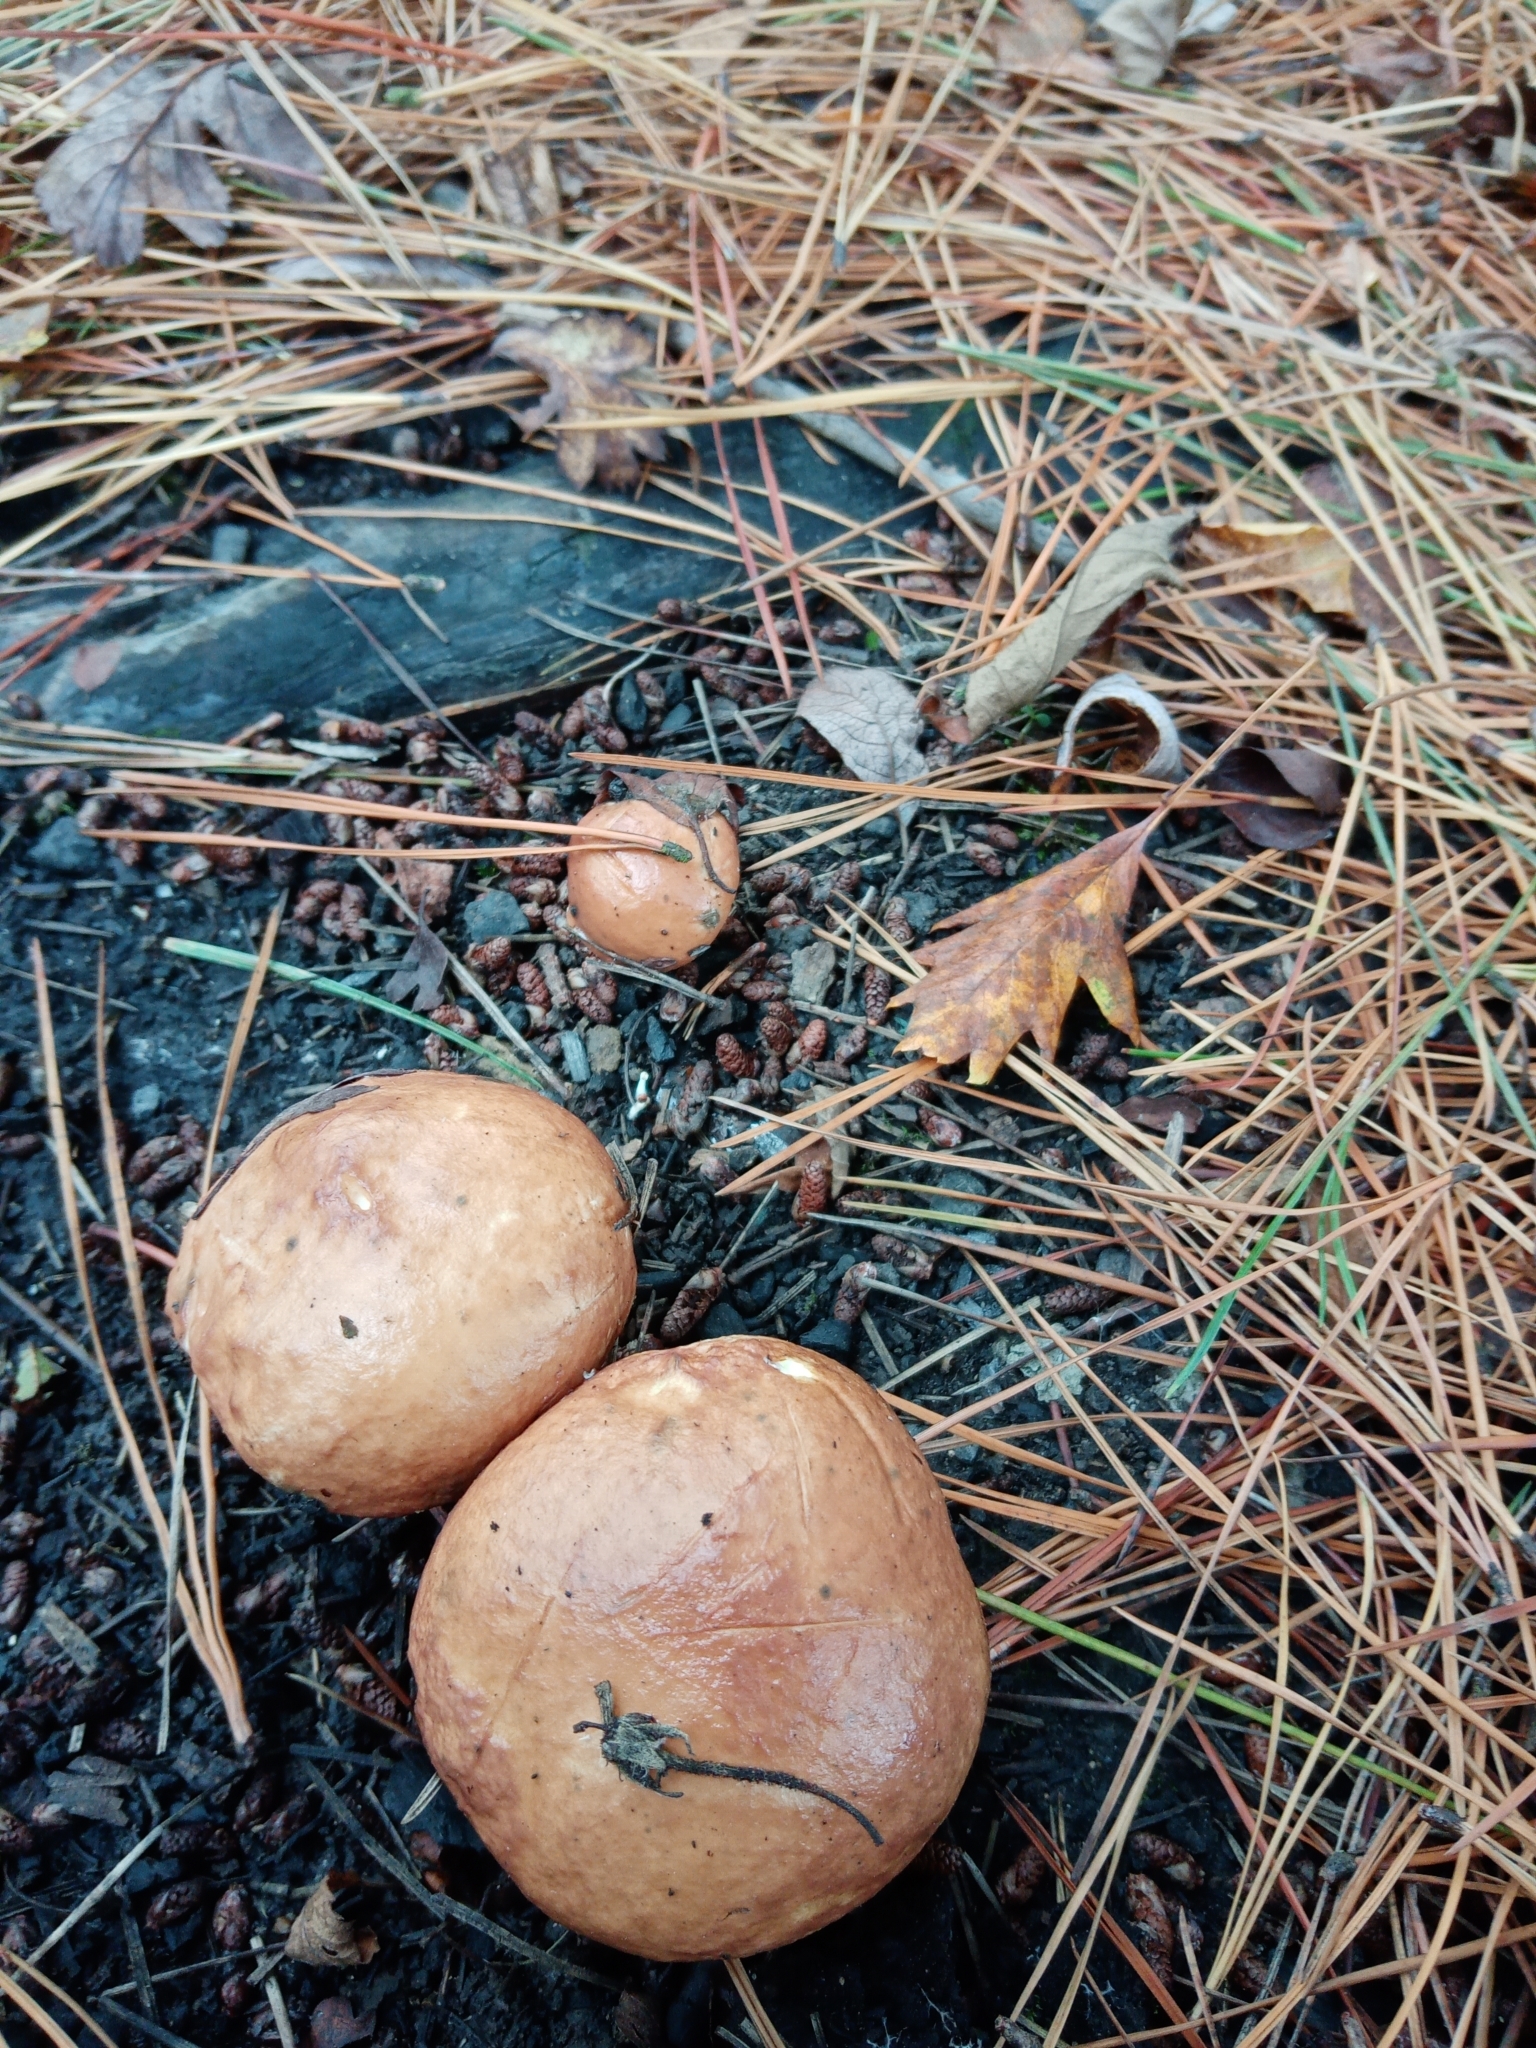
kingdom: Fungi
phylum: Basidiomycota
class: Agaricomycetes
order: Boletales
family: Suillaceae
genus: Suillus
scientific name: Suillus granulatus
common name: Weeping bolete
